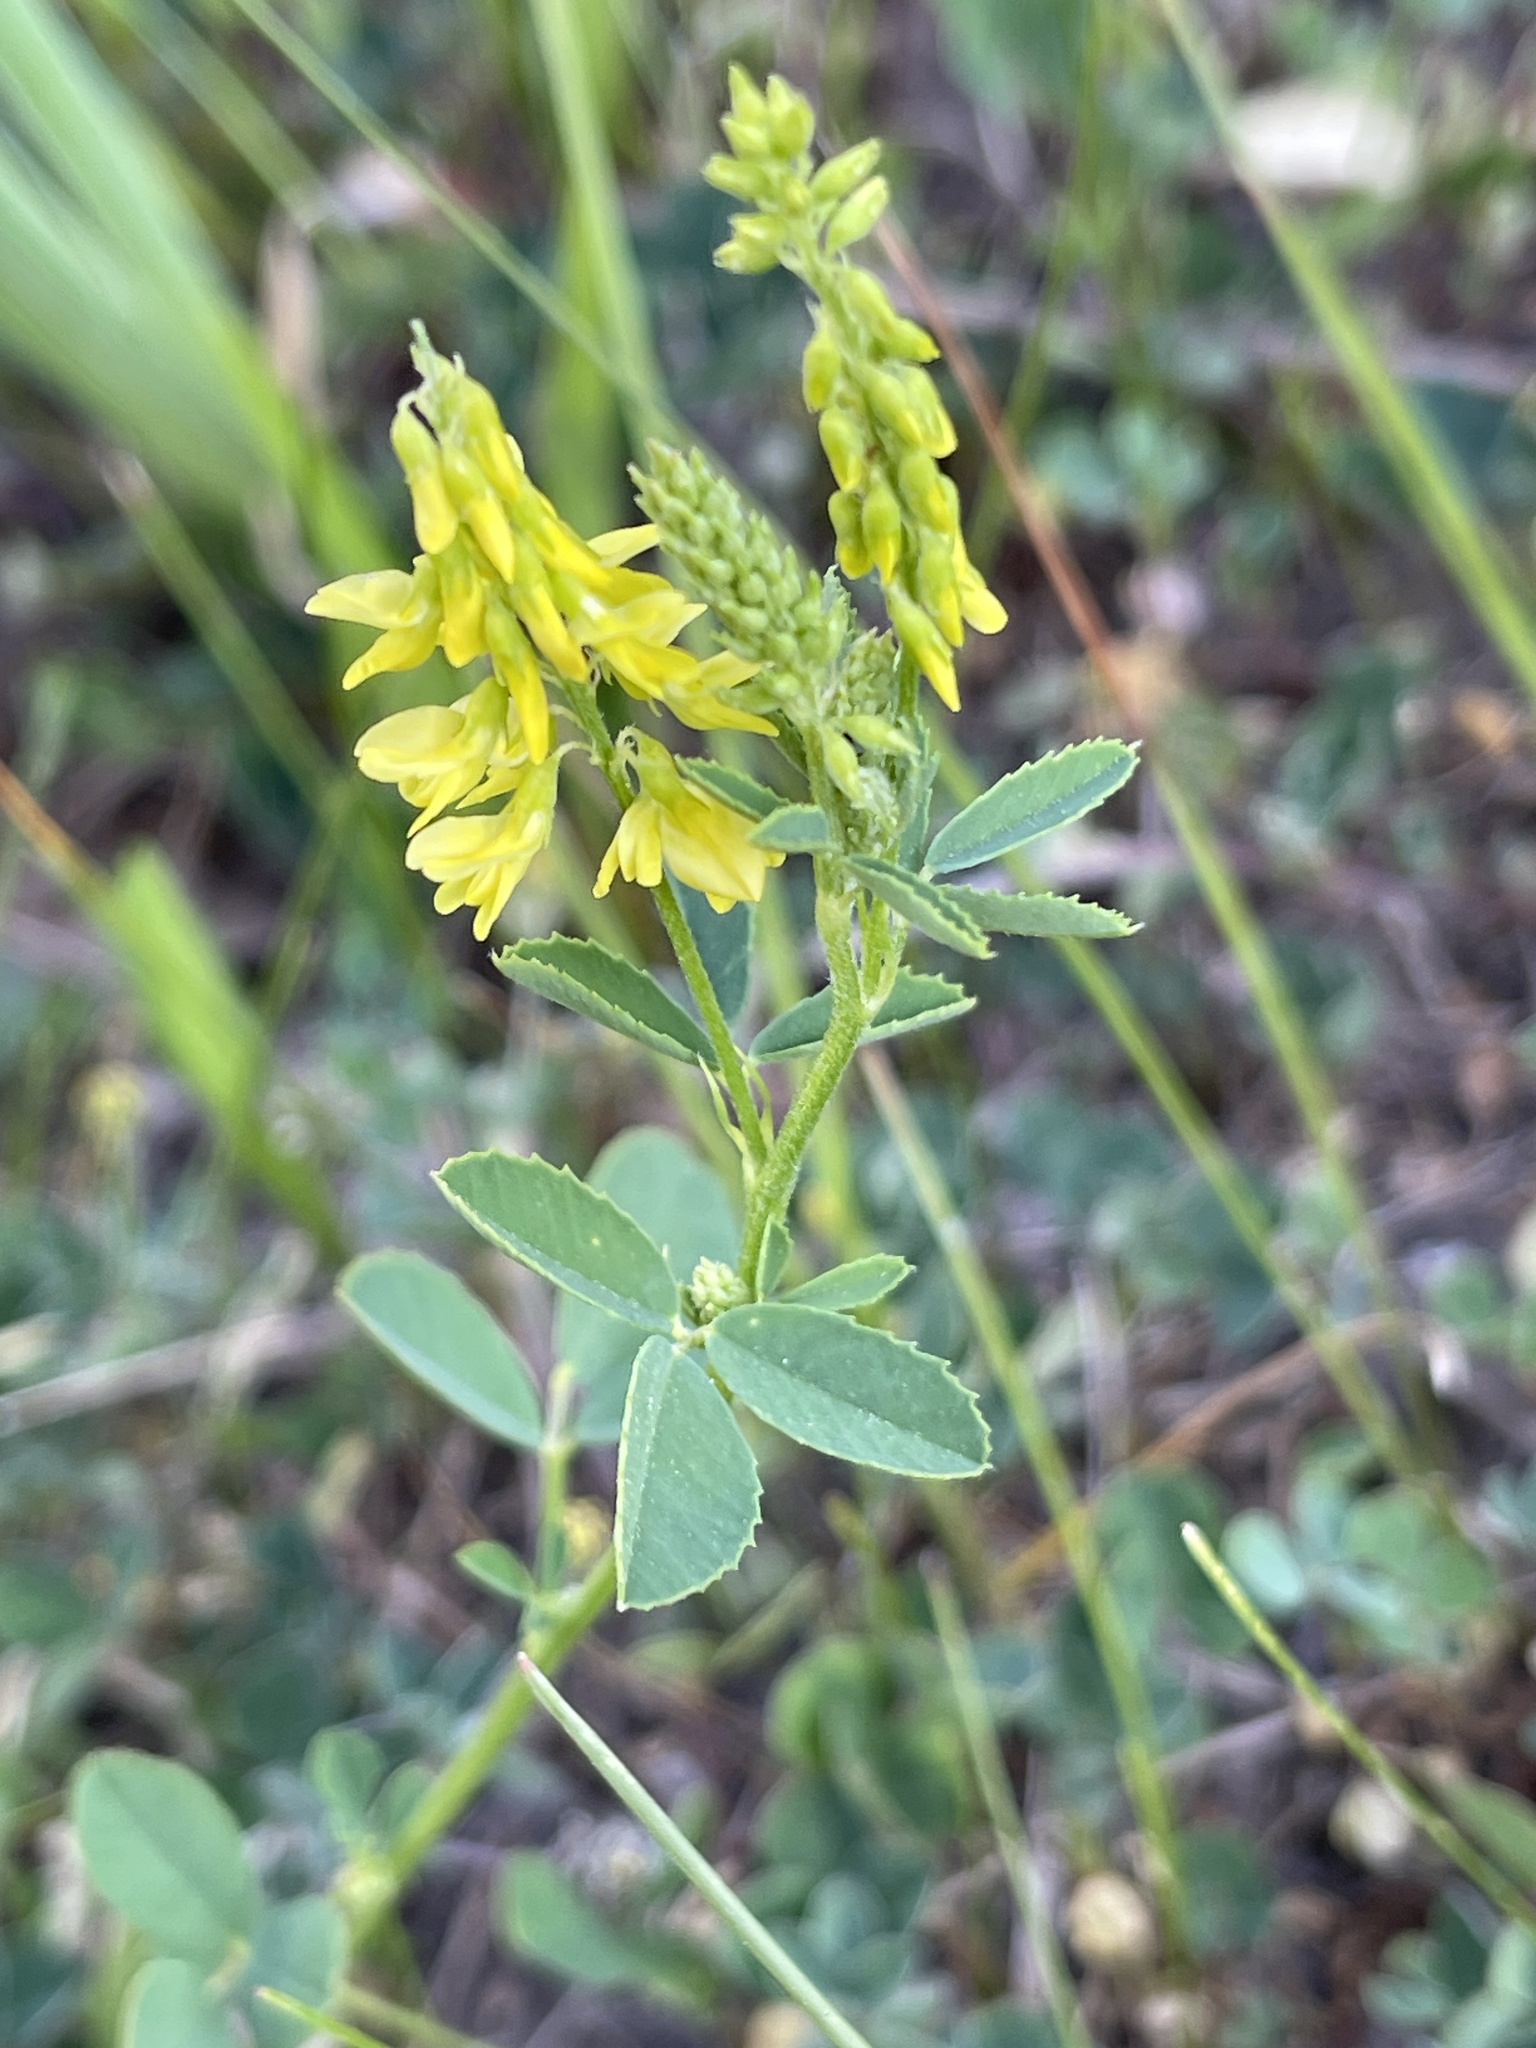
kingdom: Plantae
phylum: Tracheophyta
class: Magnoliopsida
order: Fabales
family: Fabaceae
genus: Melilotus
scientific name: Melilotus officinalis
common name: Sweetclover
